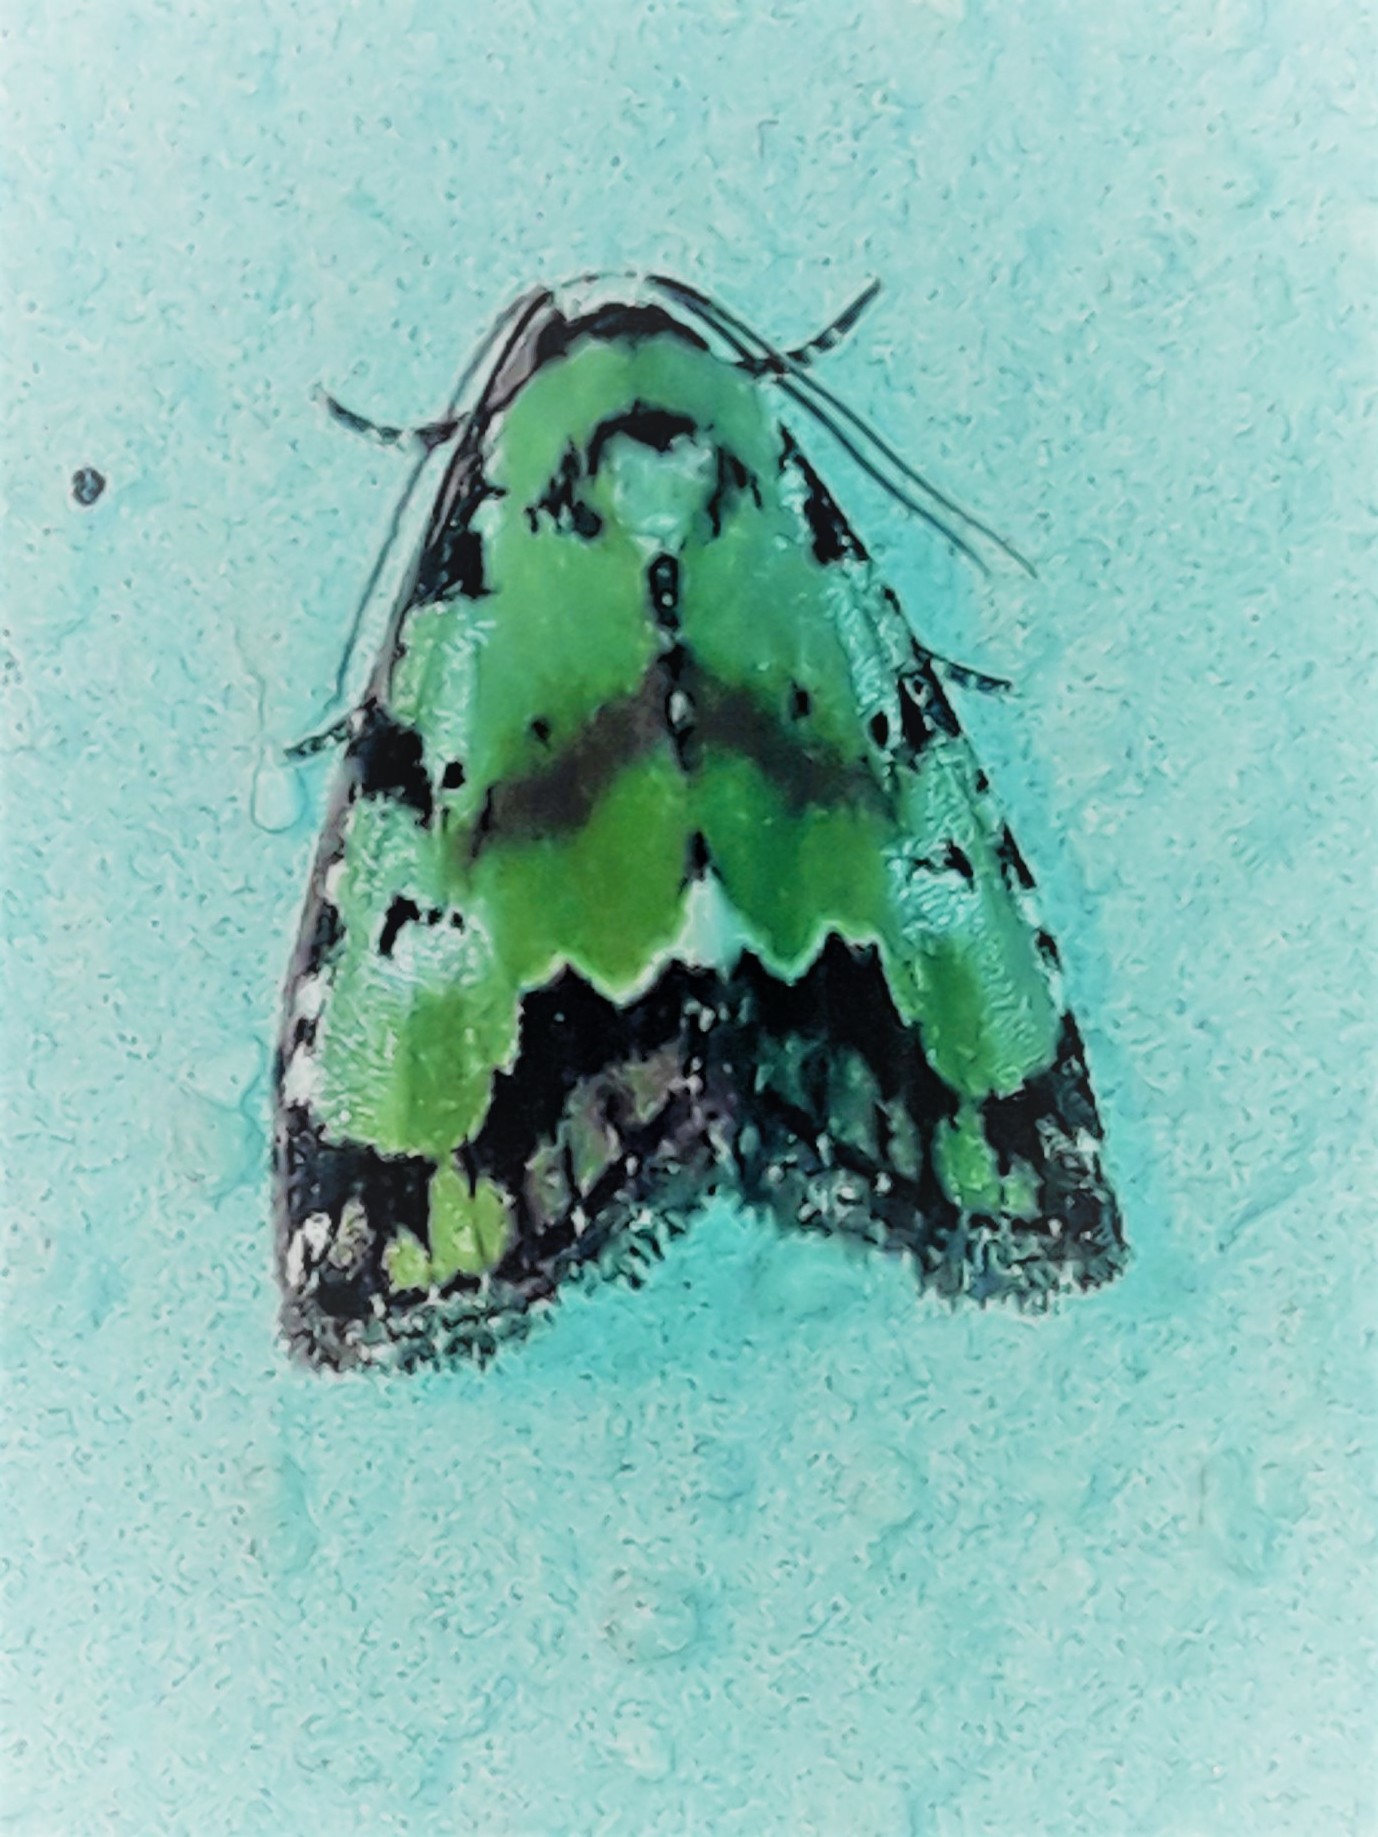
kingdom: Animalia
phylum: Arthropoda
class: Insecta
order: Lepidoptera
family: Noctuidae
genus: Lithacodia
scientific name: Lithacodia jora
